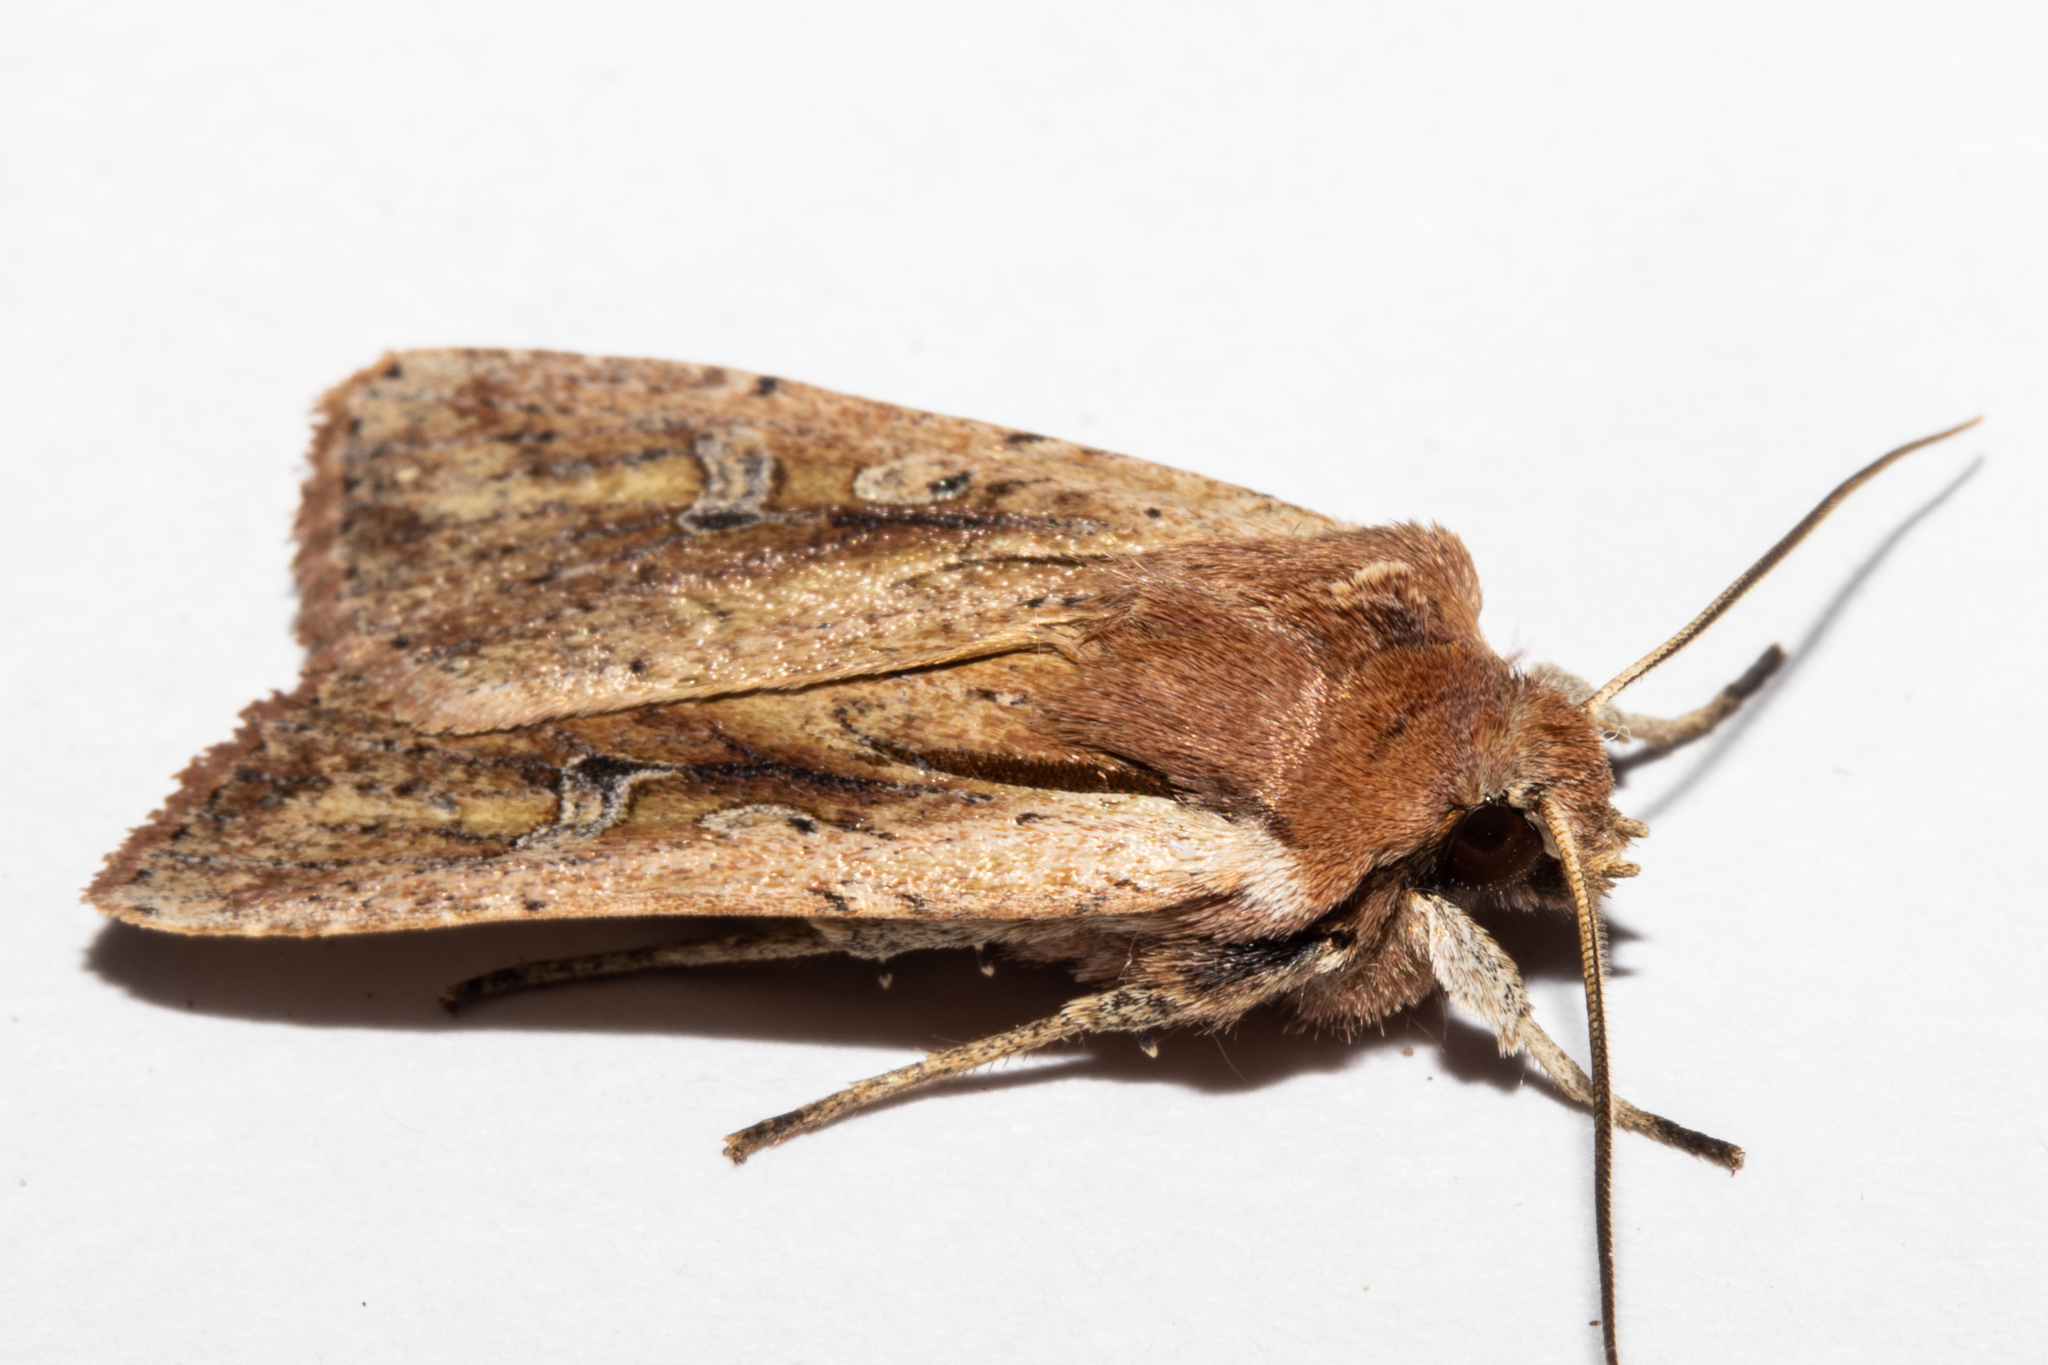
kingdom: Animalia
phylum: Arthropoda
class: Insecta
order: Lepidoptera
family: Noctuidae
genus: Ichneutica
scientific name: Ichneutica atristriga
